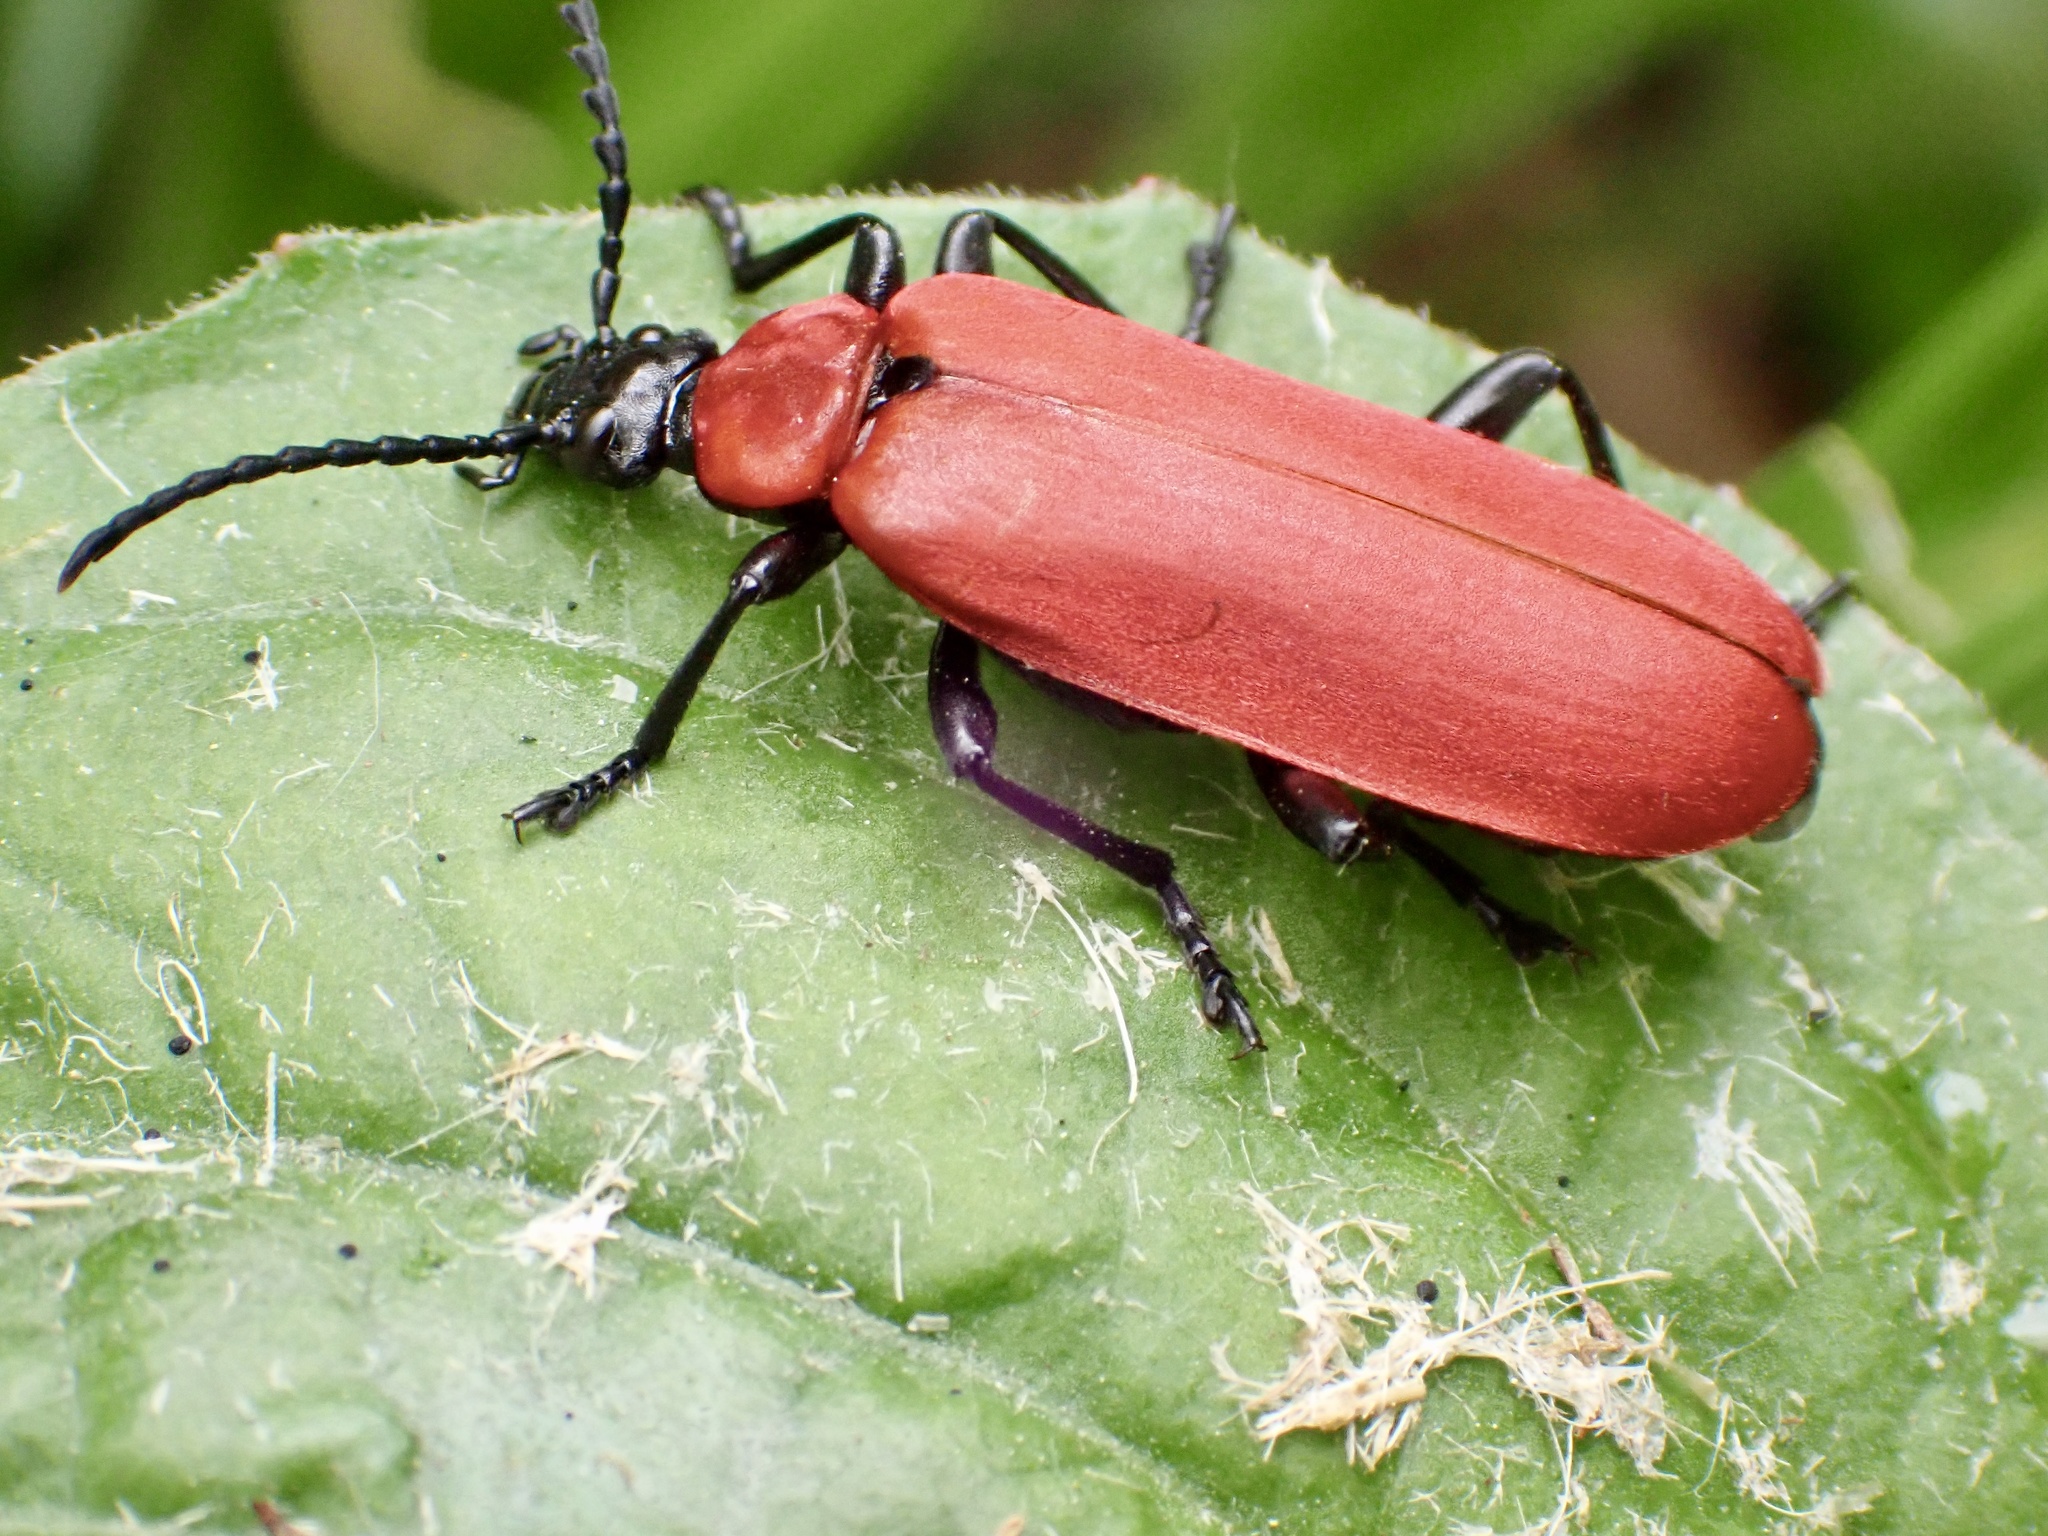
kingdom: Animalia
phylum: Arthropoda
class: Insecta
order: Coleoptera
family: Pyrochroidae
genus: Pyrochroa
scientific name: Pyrochroa coccinea
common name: Black-headed cardinal beetle
